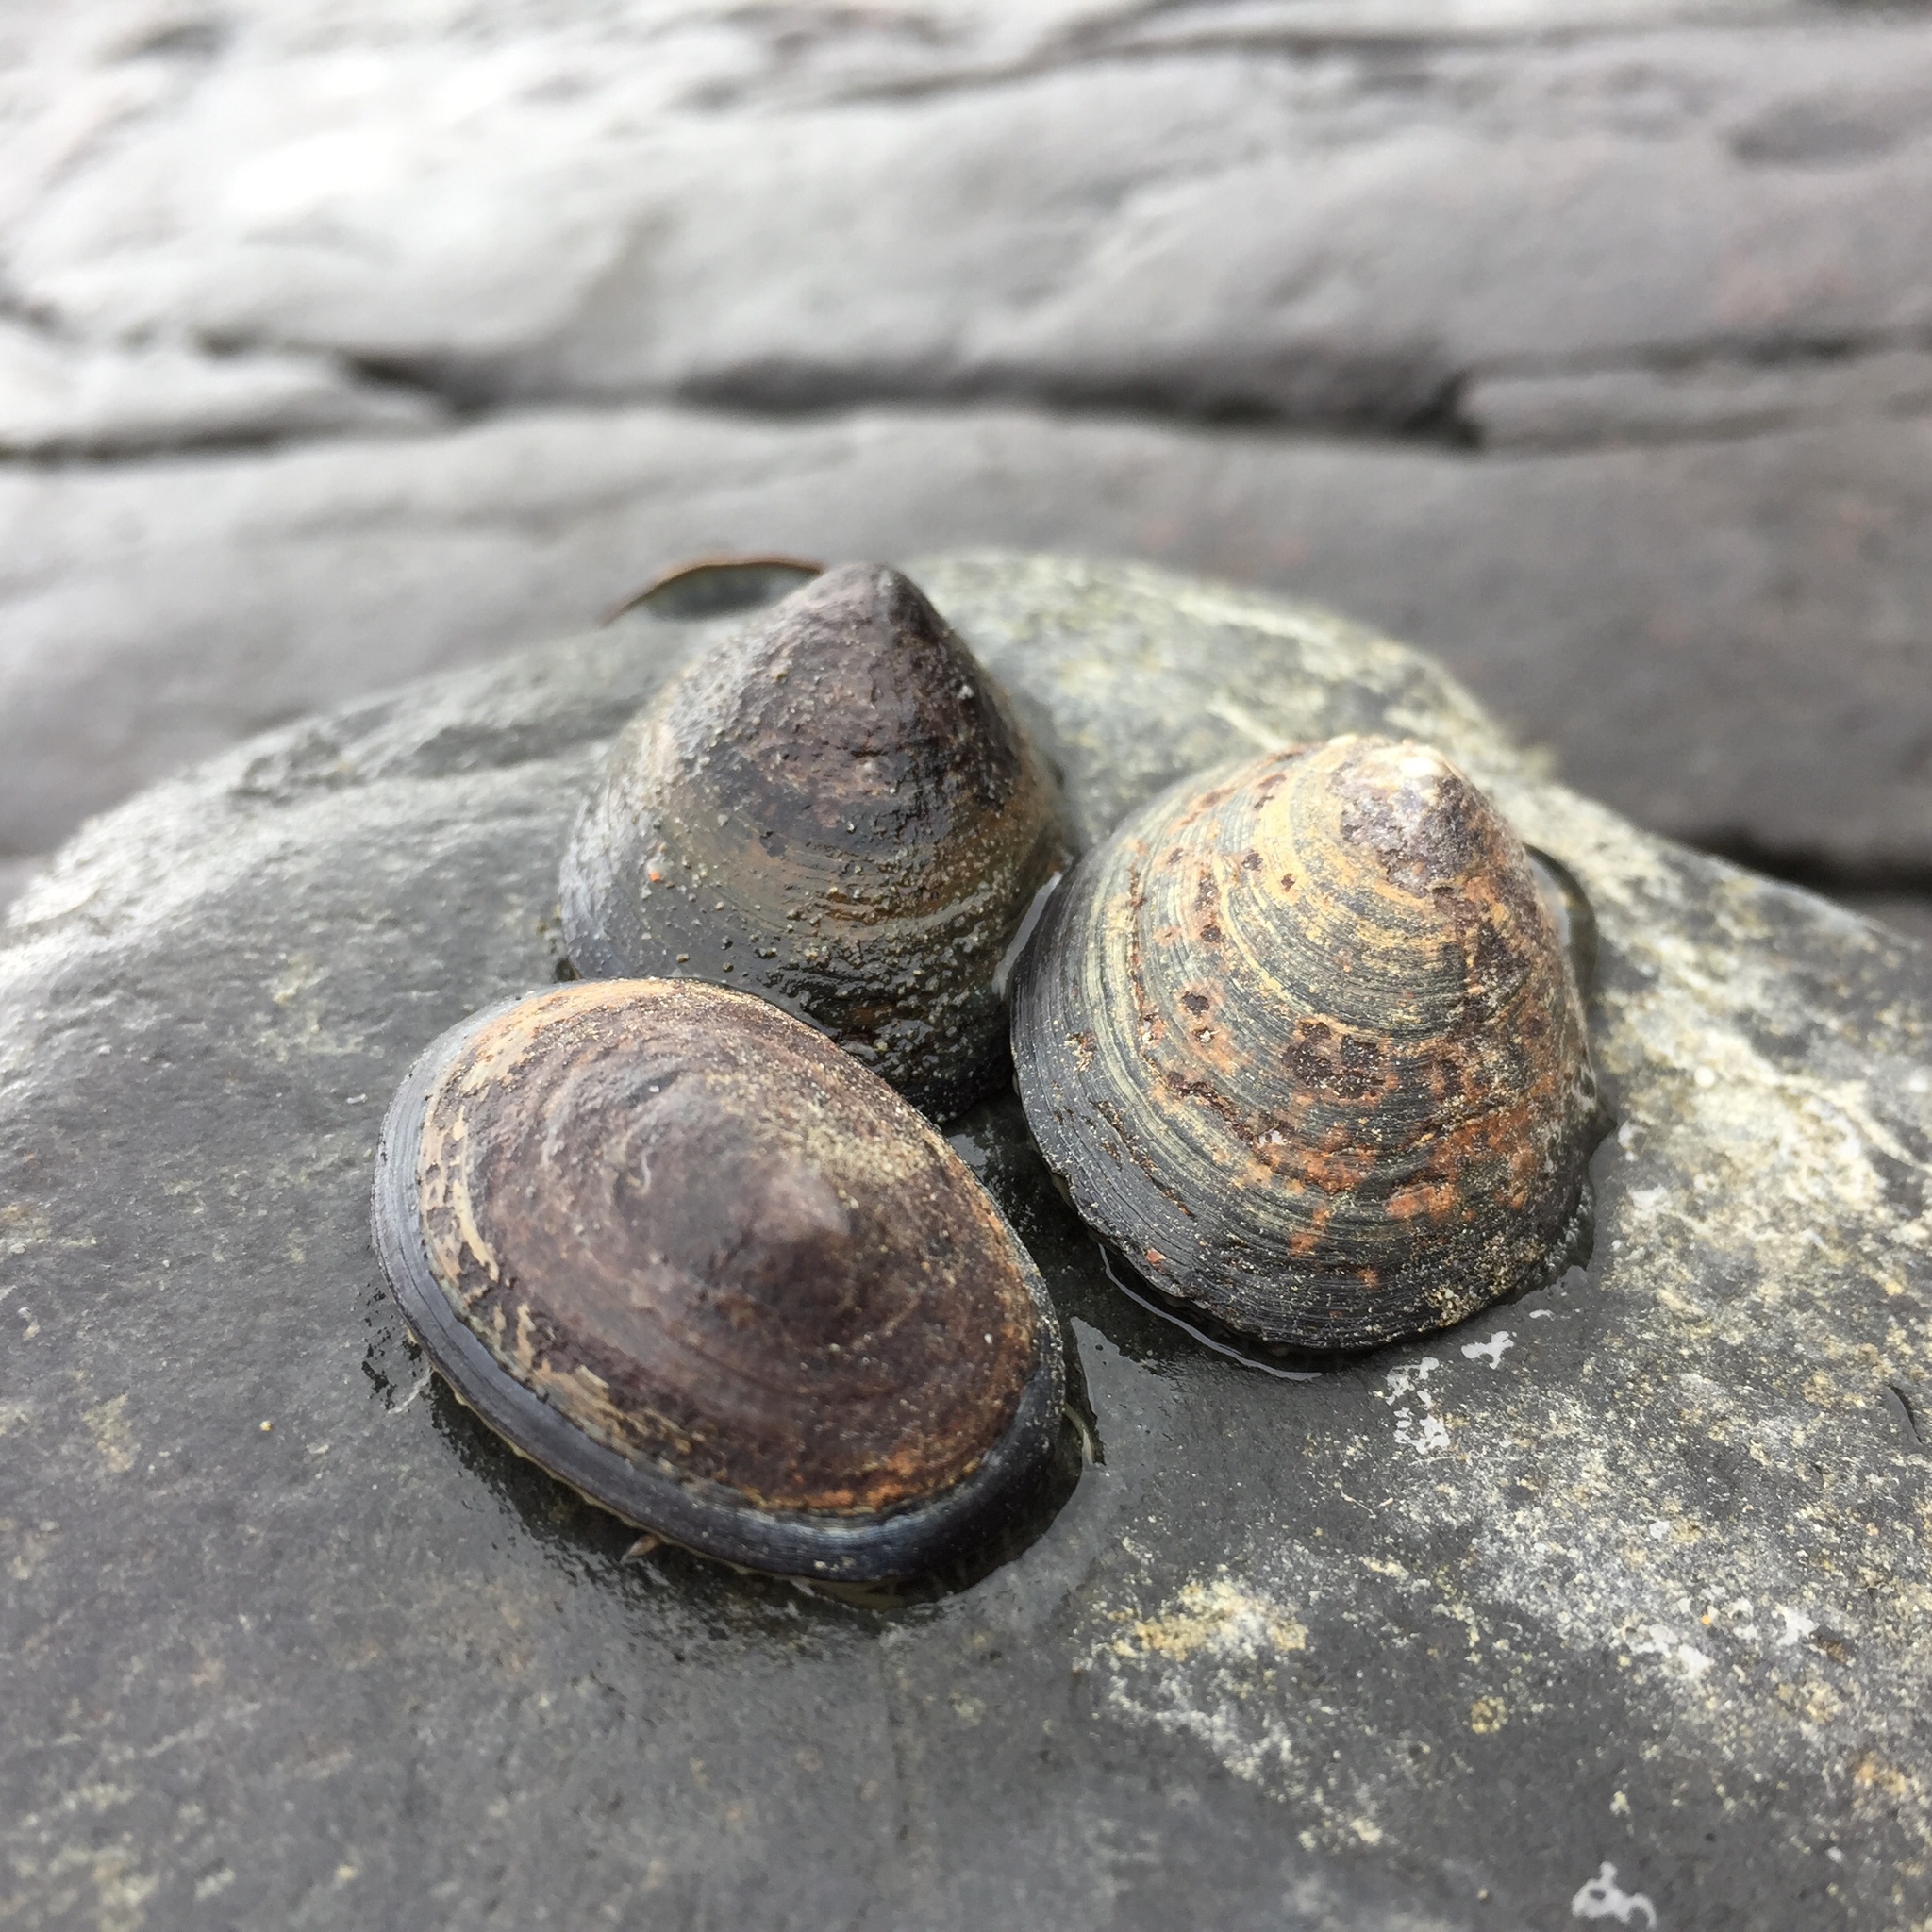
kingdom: Animalia
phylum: Mollusca
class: Gastropoda
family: Nacellidae
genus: Nacella
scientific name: Nacella concinna
